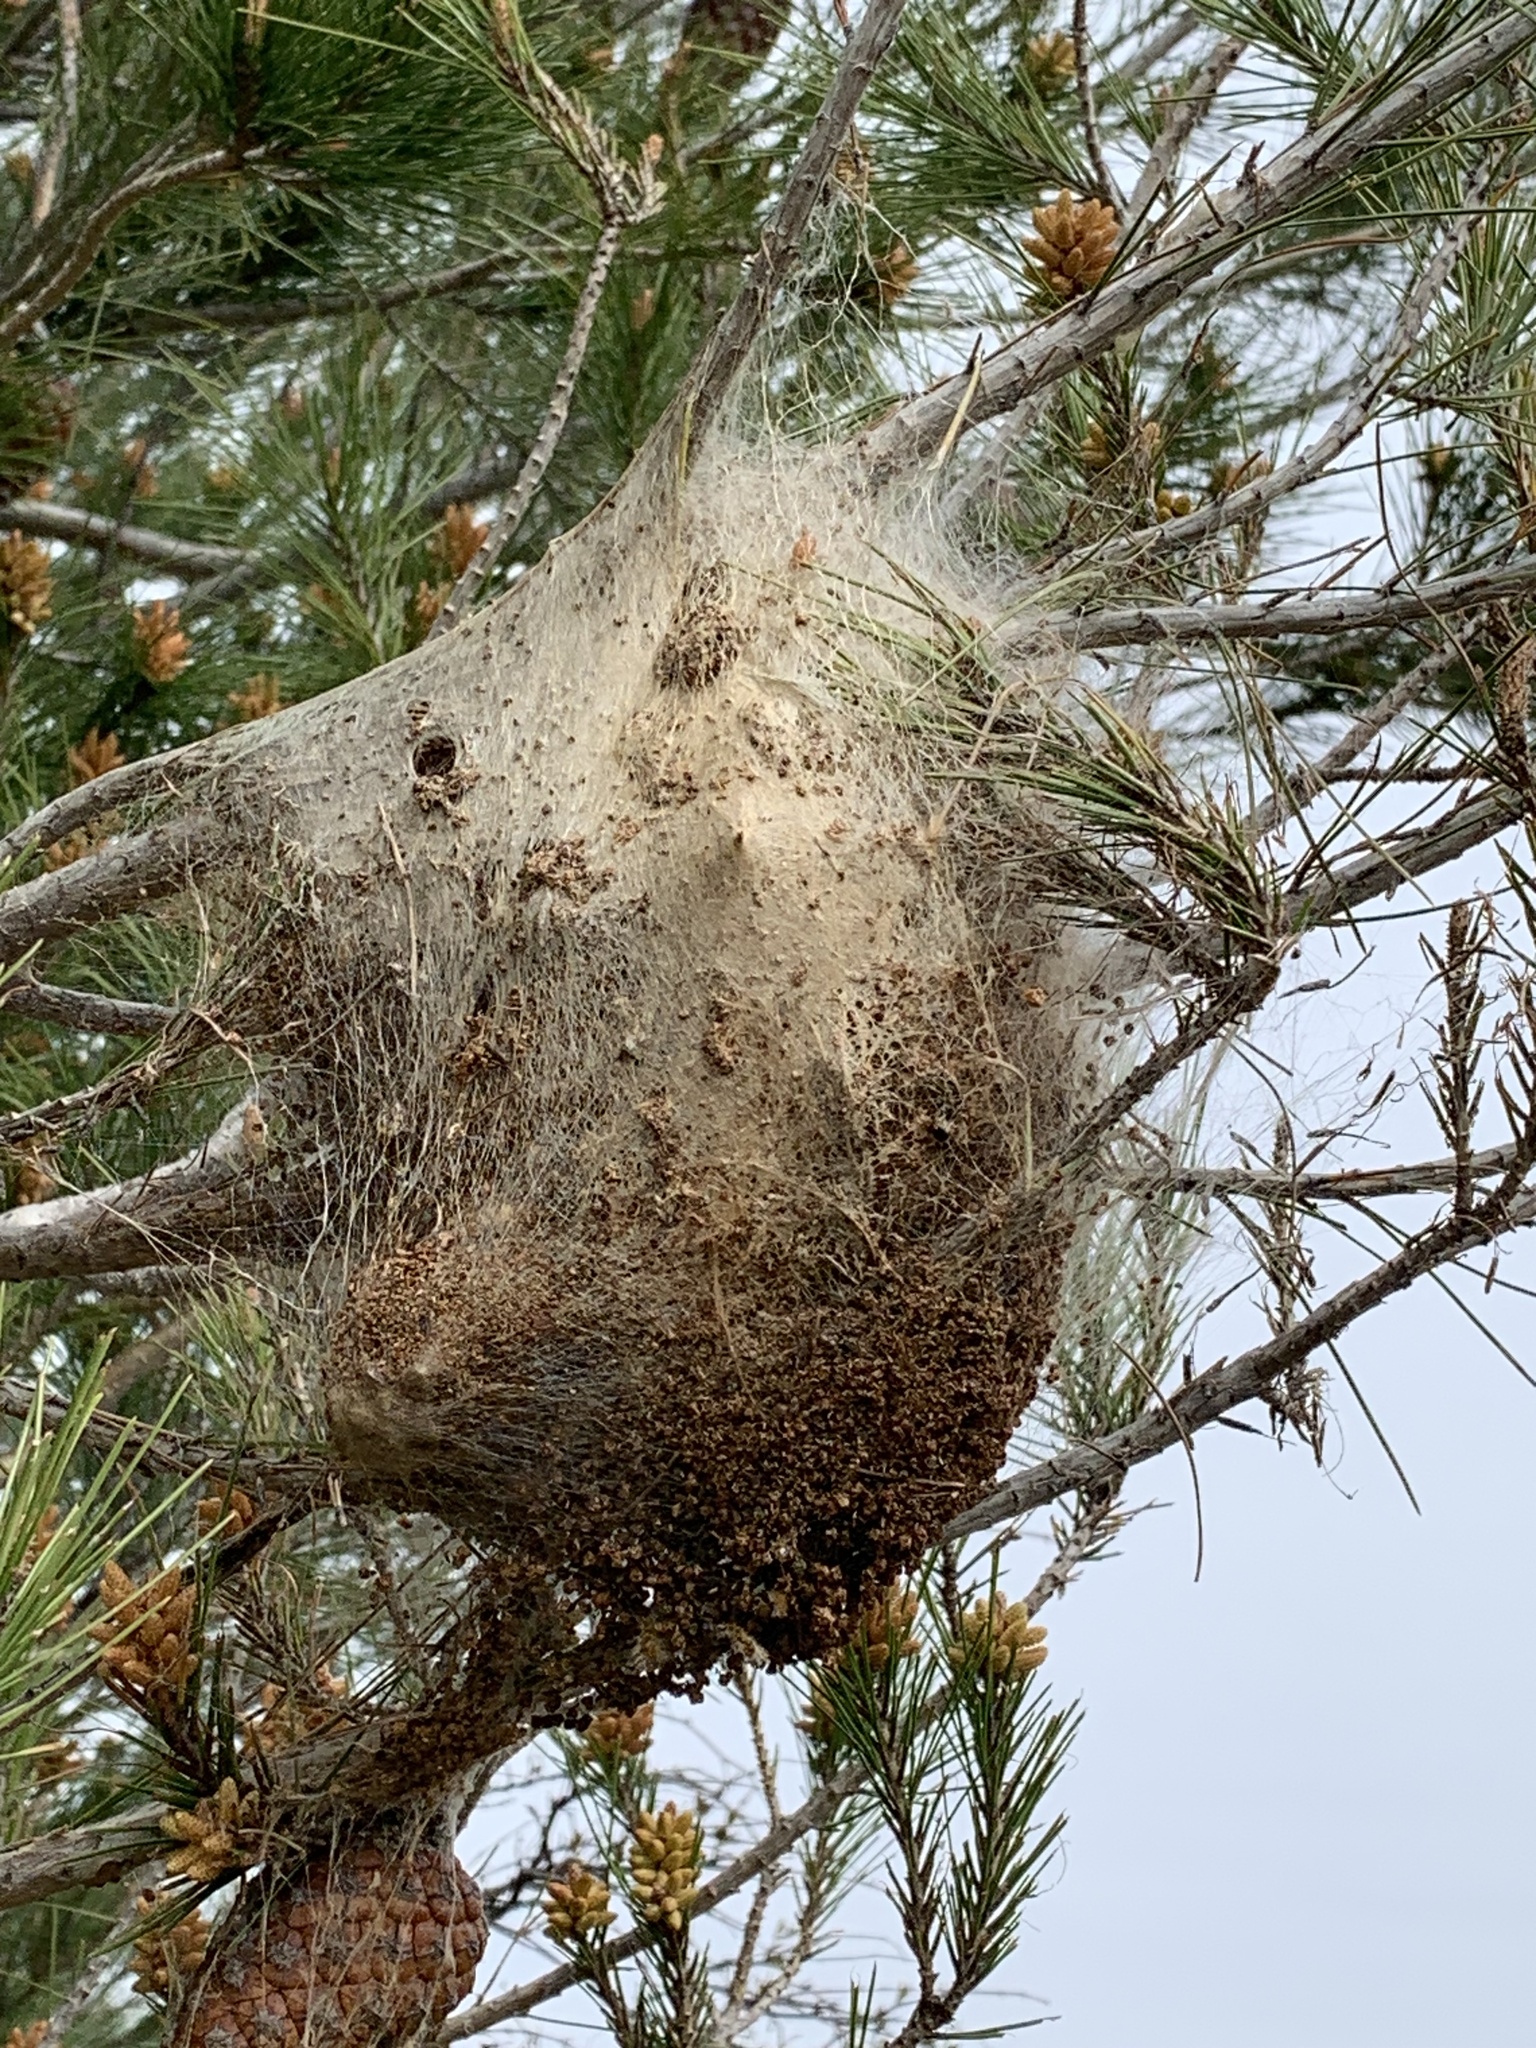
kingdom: Animalia
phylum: Arthropoda
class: Insecta
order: Lepidoptera
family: Notodontidae
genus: Thaumetopoea
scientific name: Thaumetopoea pityocampa
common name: Pine processionary
